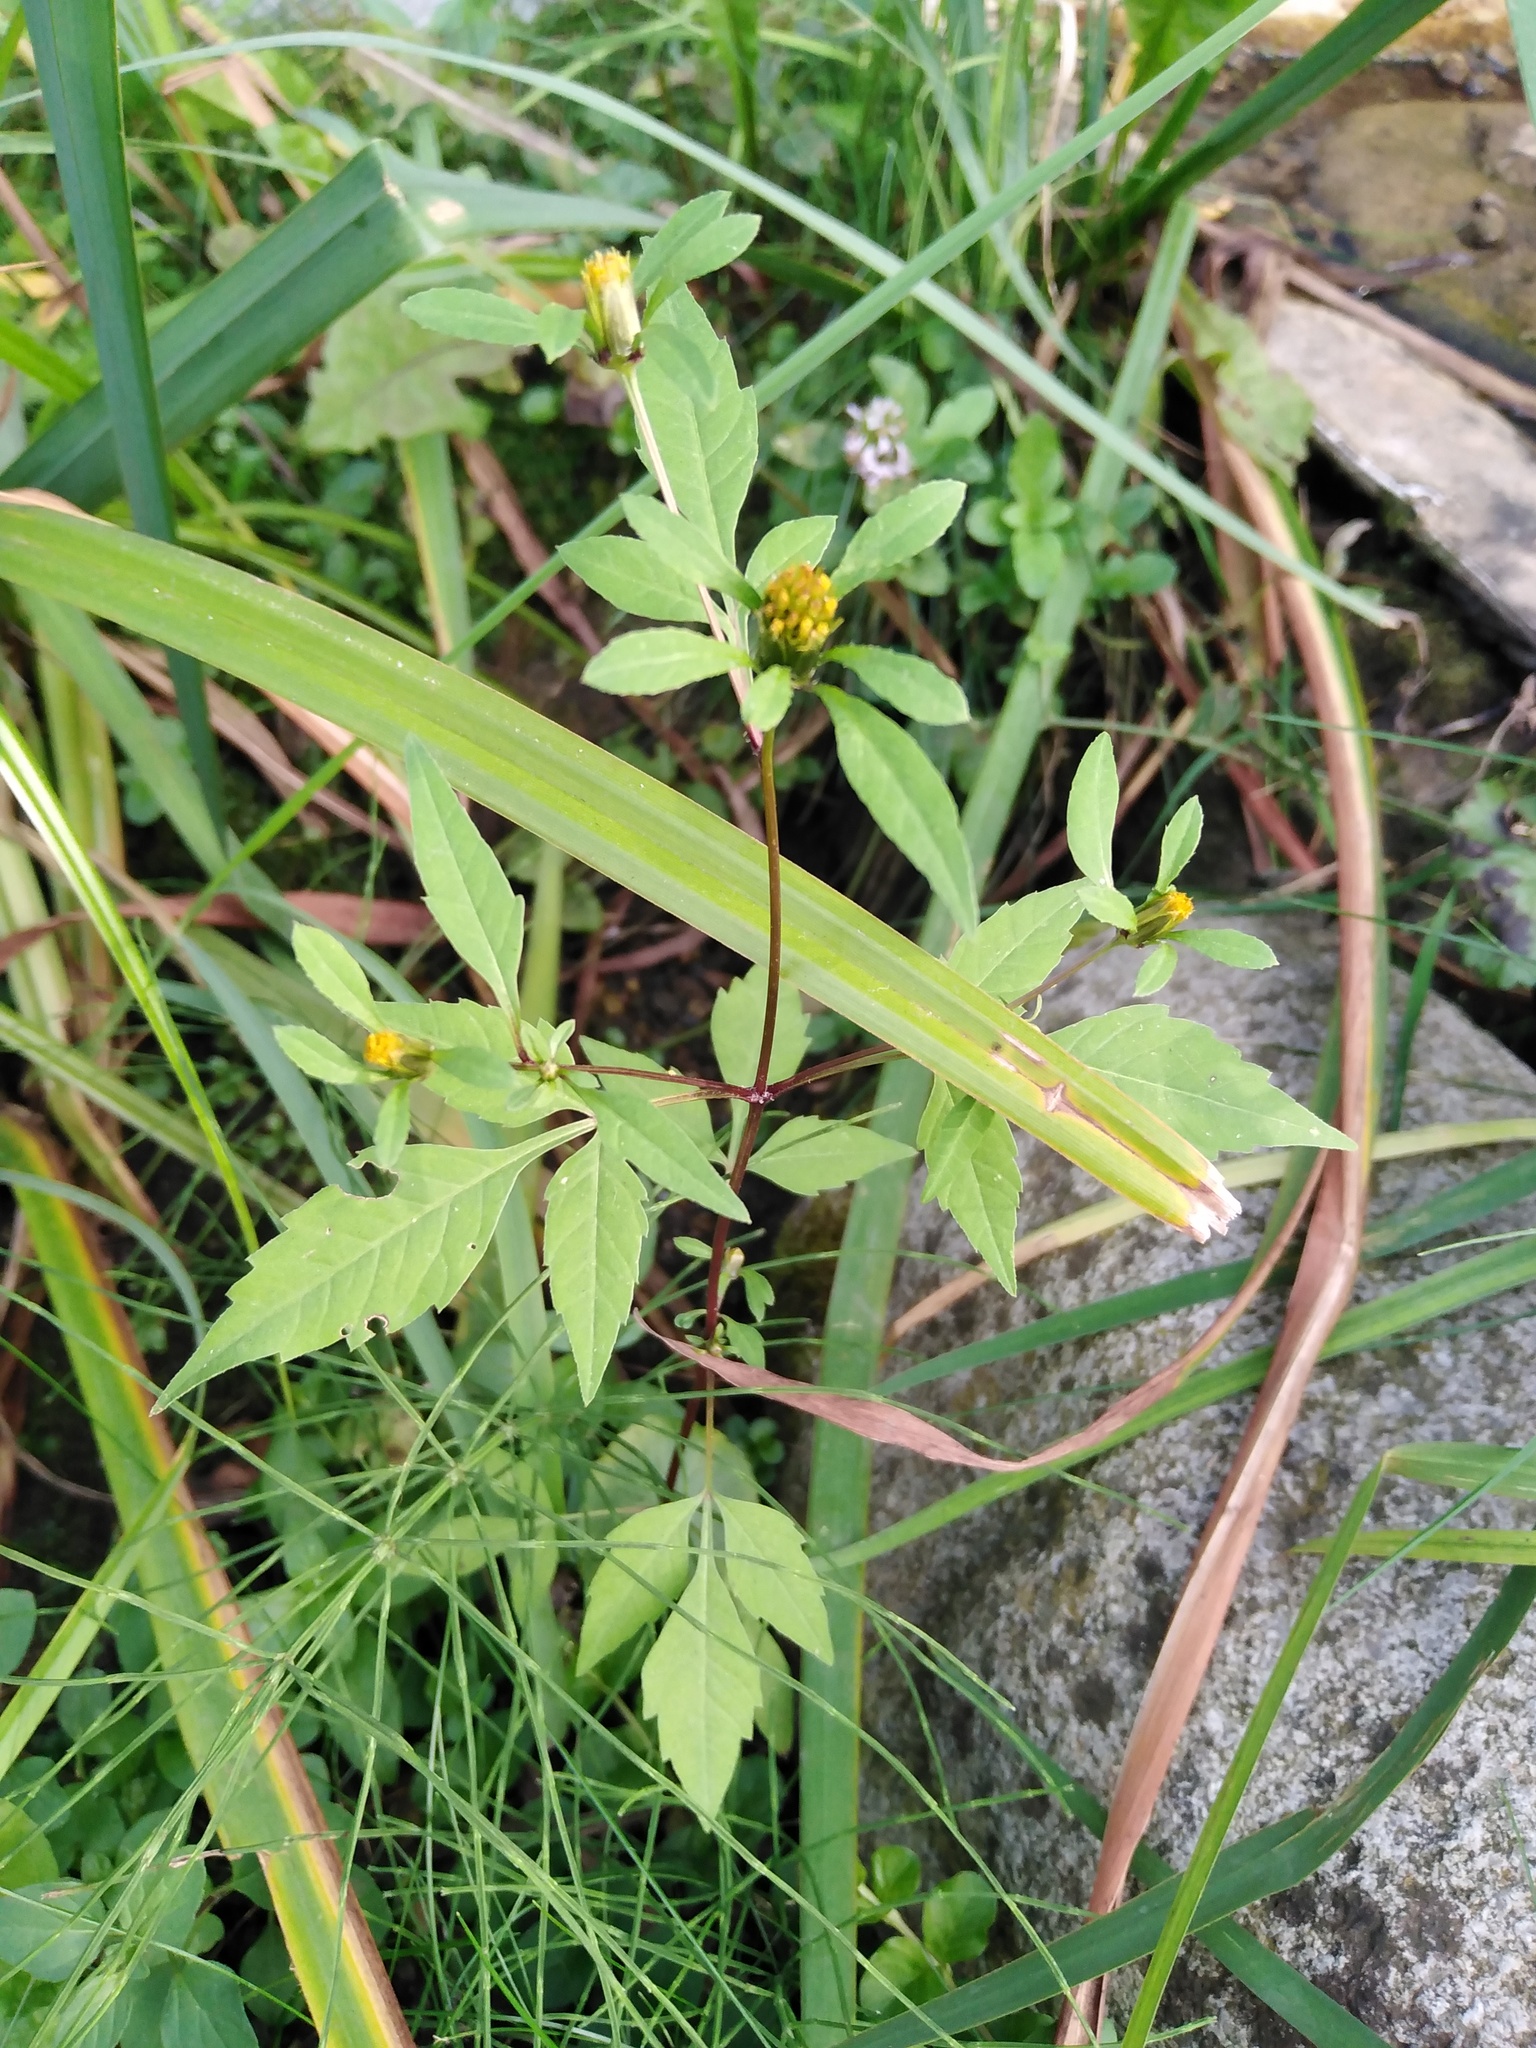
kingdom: Plantae
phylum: Tracheophyta
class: Magnoliopsida
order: Asterales
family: Asteraceae
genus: Bidens
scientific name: Bidens frondosa
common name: Beggarticks
